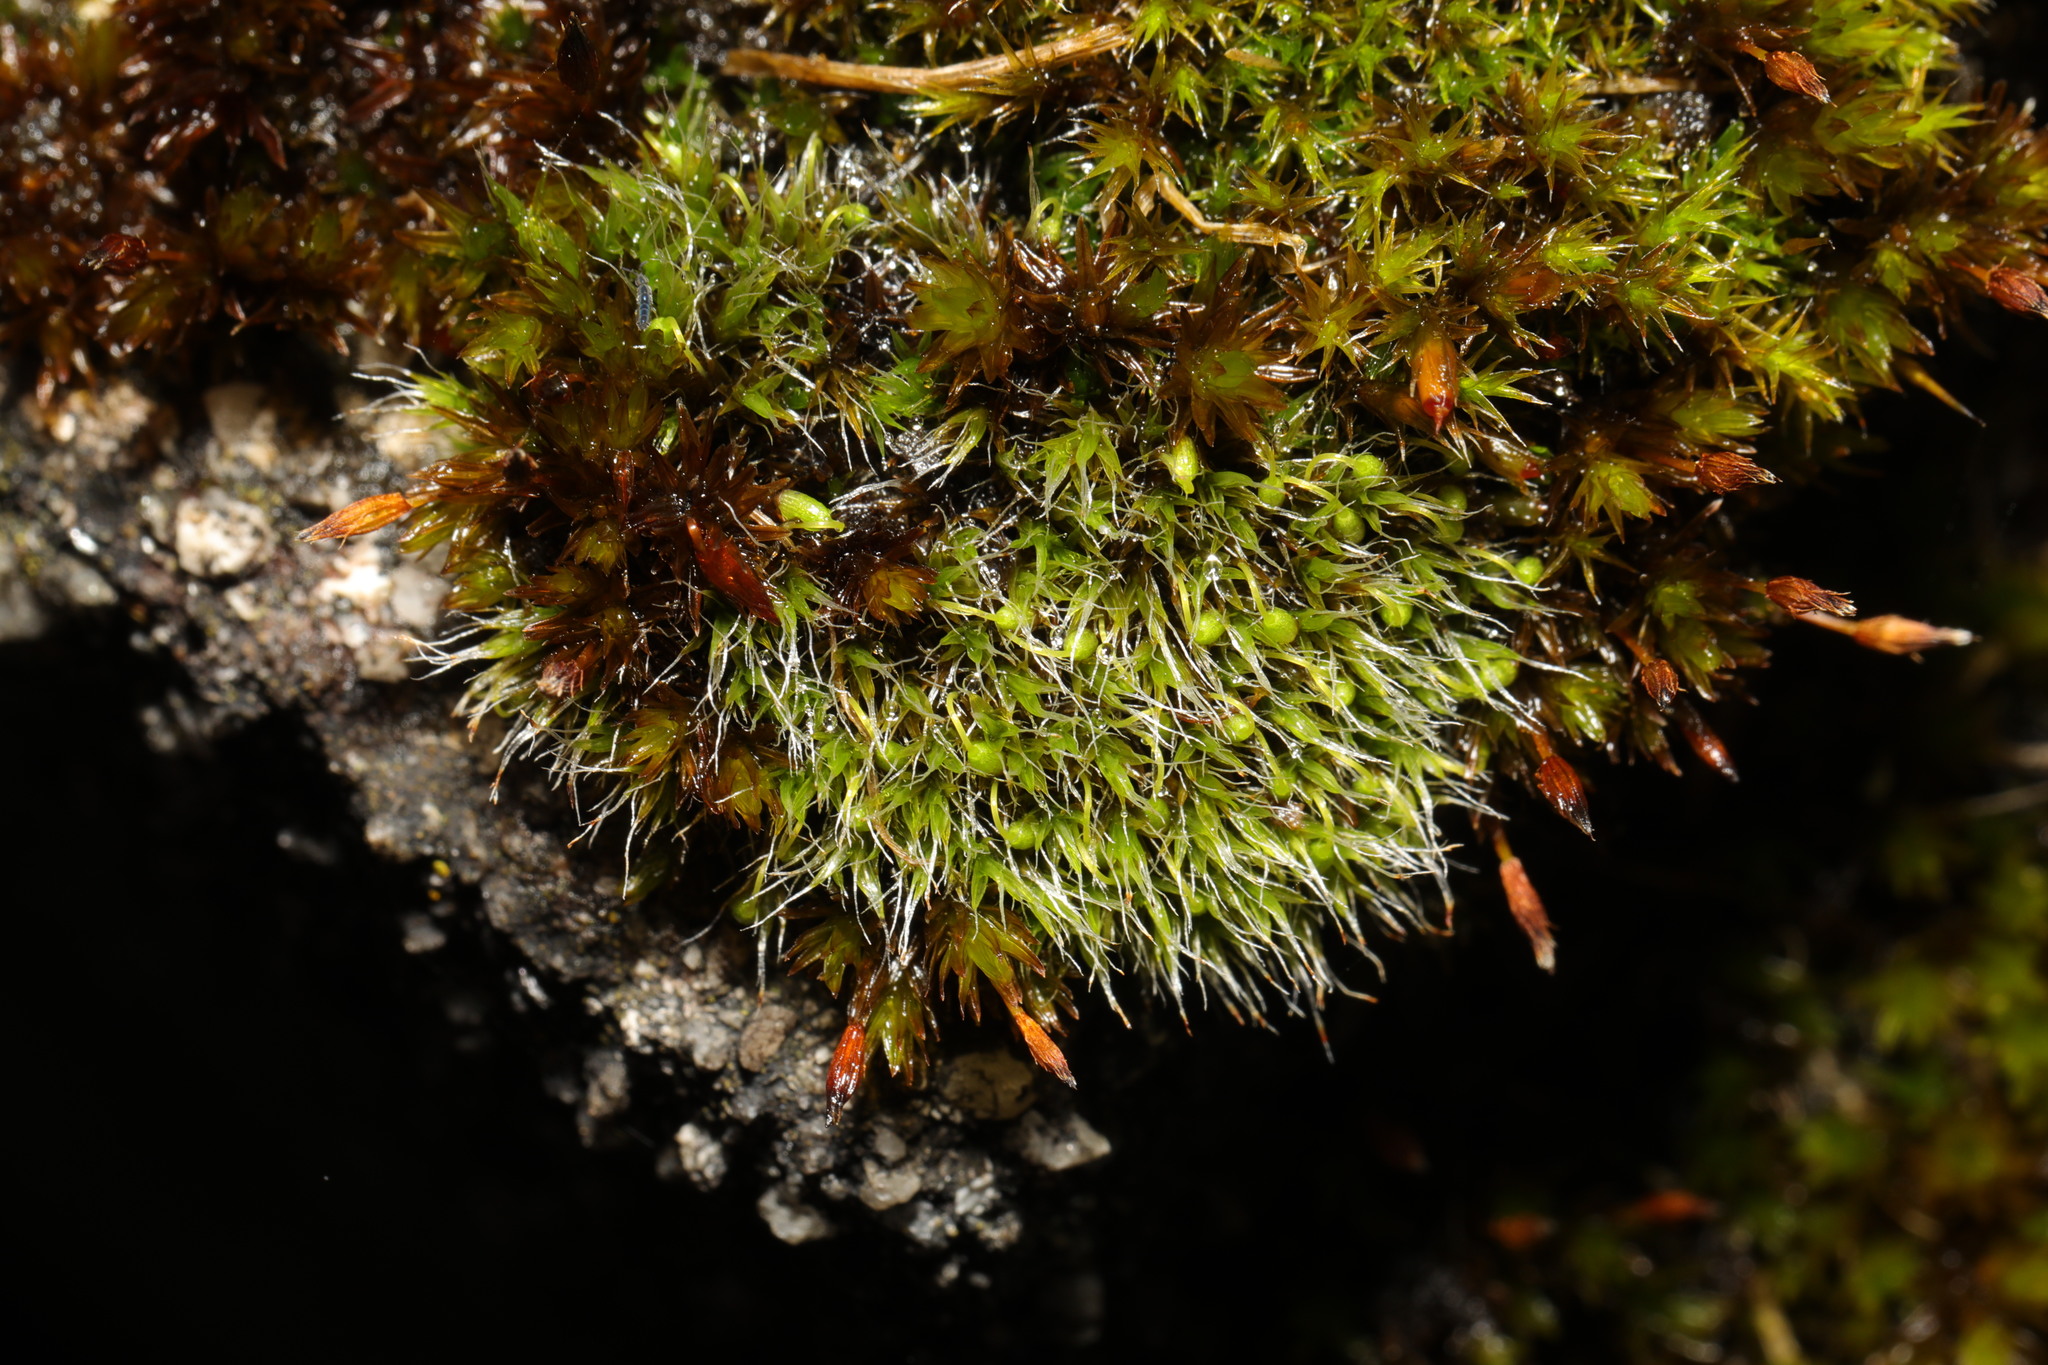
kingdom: Plantae
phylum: Bryophyta
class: Bryopsida
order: Grimmiales
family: Grimmiaceae
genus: Grimmia
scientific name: Grimmia pulvinata
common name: Grey-cushioned grimmia
